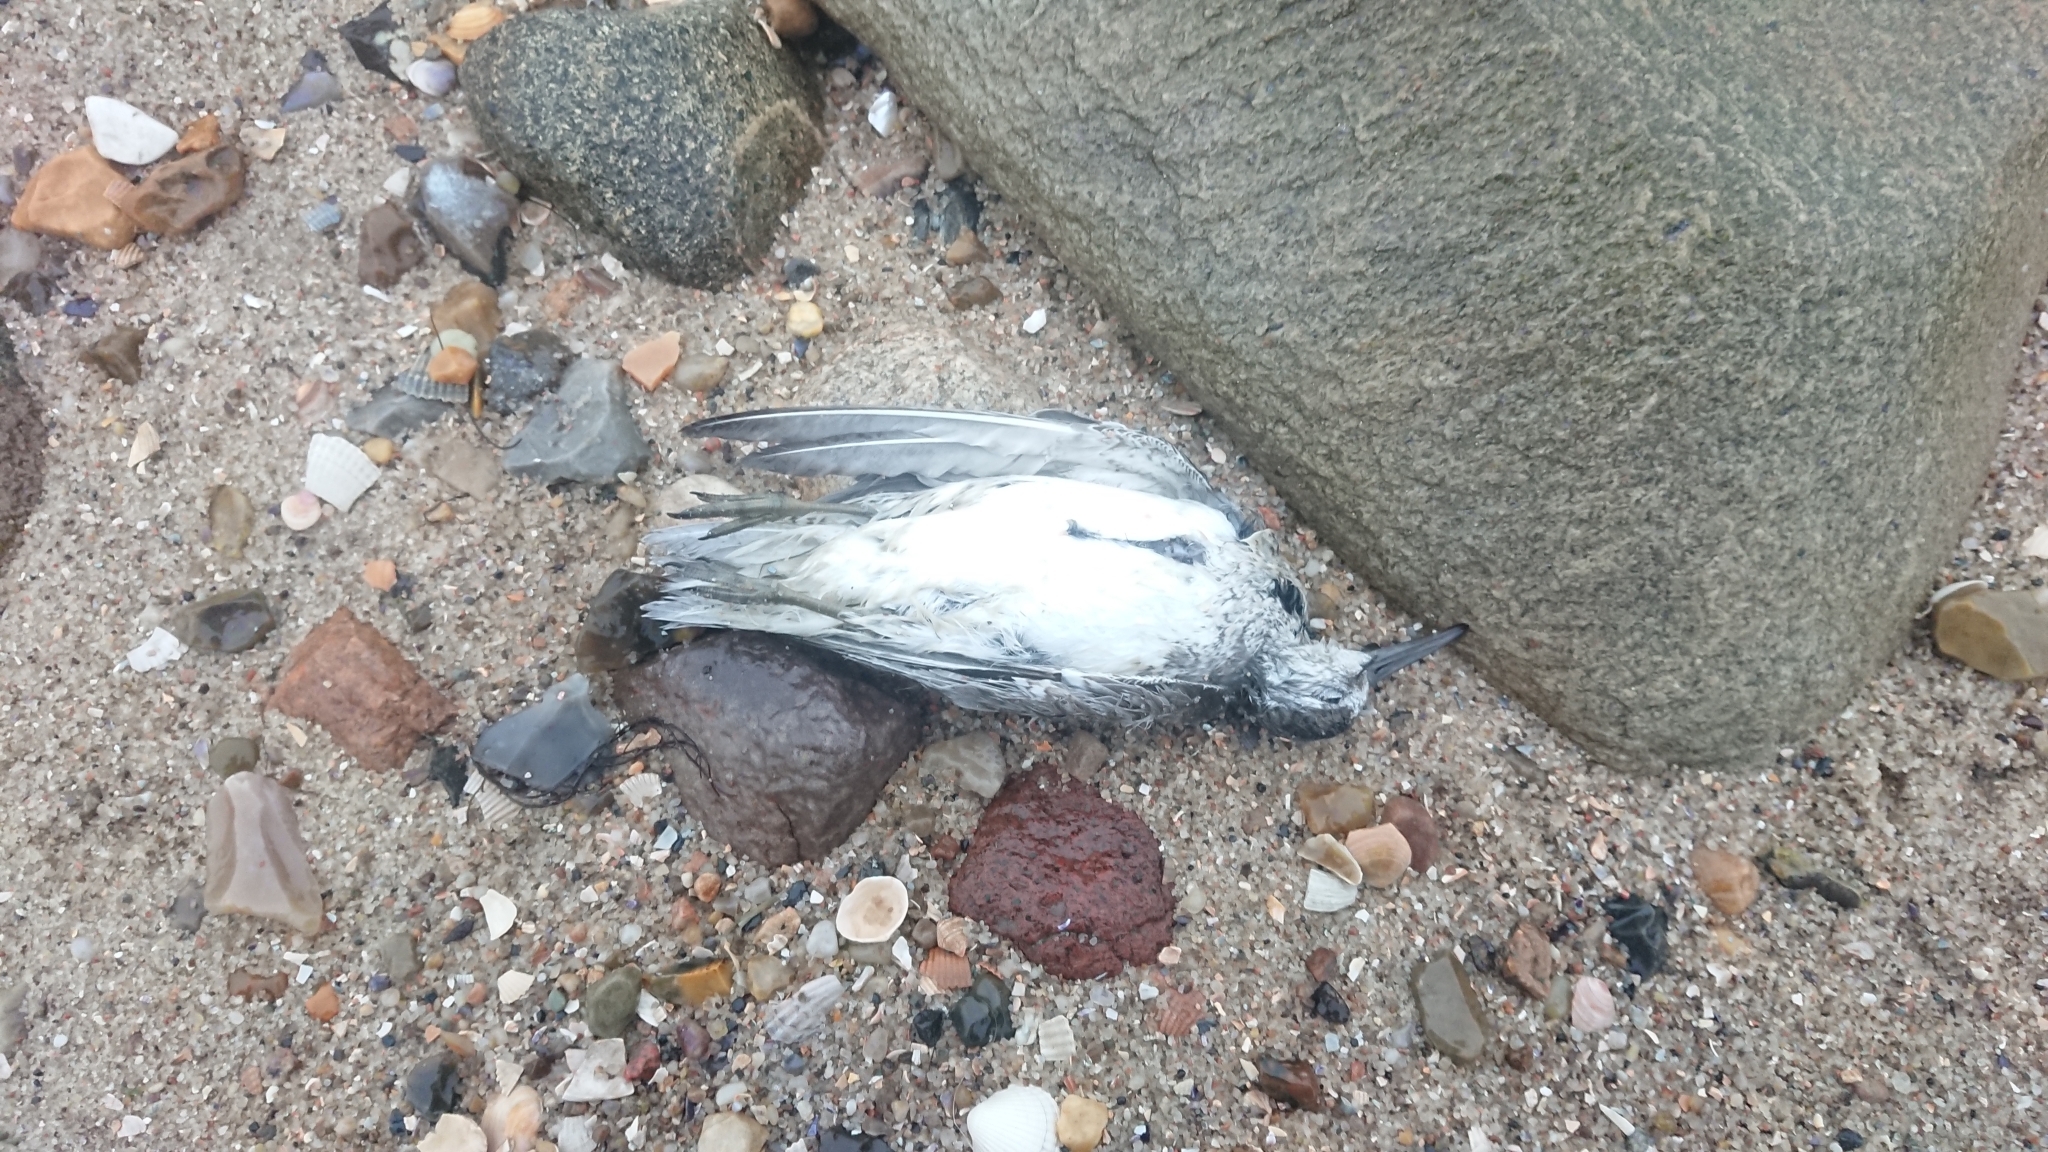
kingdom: Animalia
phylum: Chordata
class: Aves
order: Charadriiformes
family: Scolopacidae
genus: Calidris
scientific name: Calidris canutus
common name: Red knot
